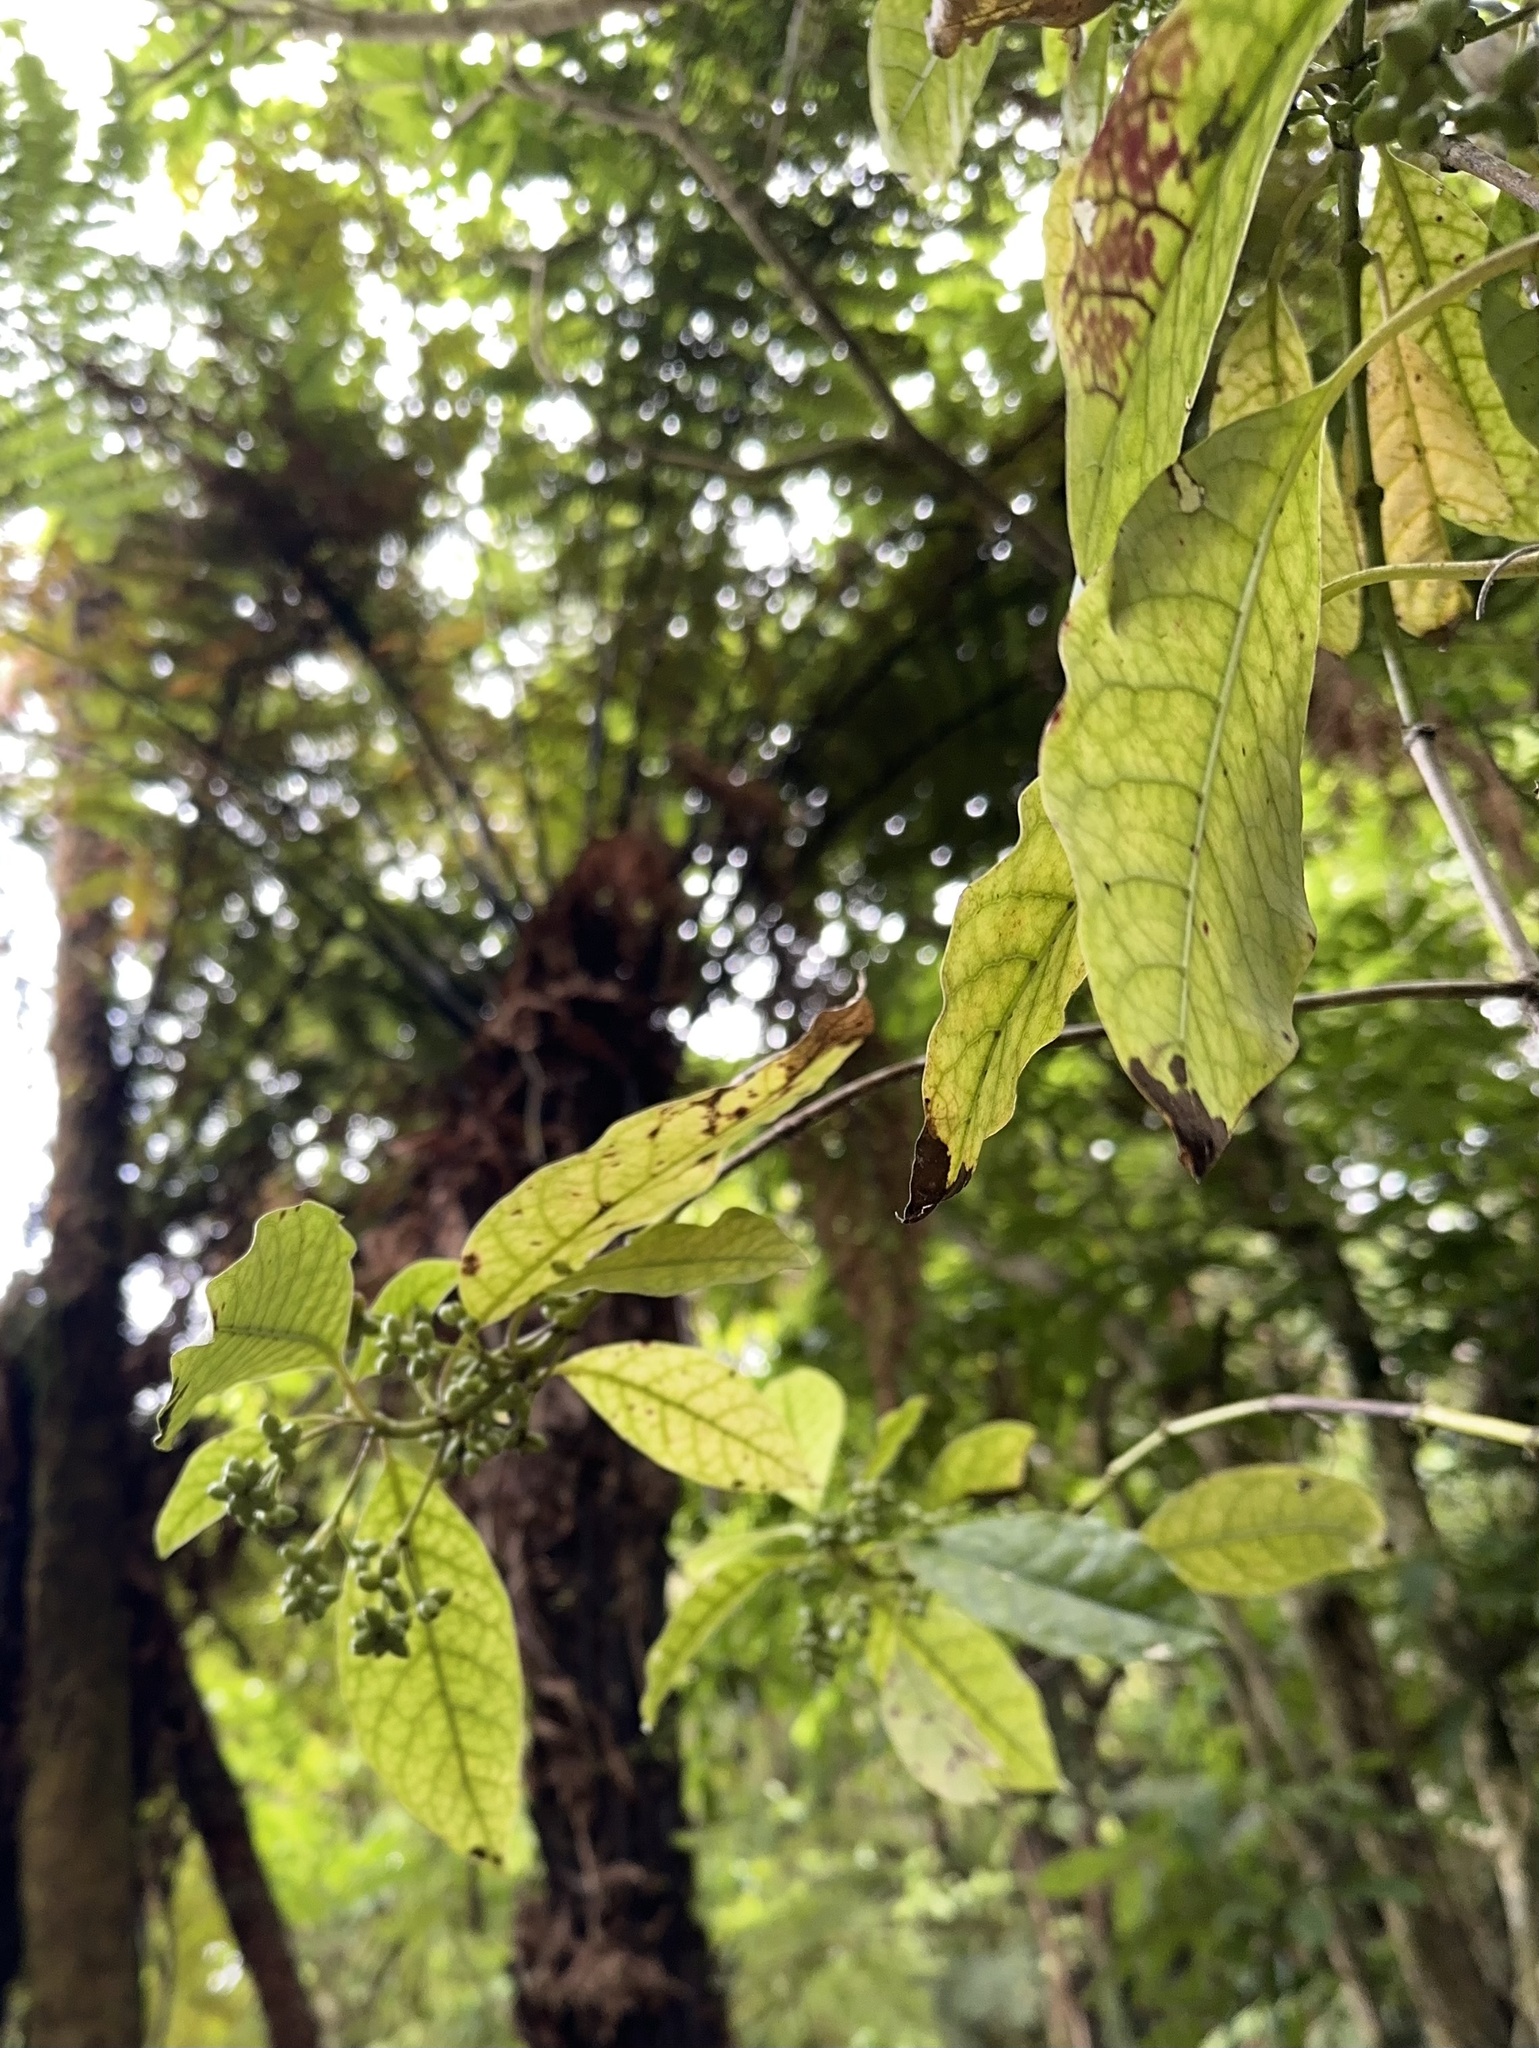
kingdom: Plantae
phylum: Tracheophyta
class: Magnoliopsida
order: Gentianales
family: Rubiaceae
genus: Coprosma
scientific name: Coprosma autumnalis
